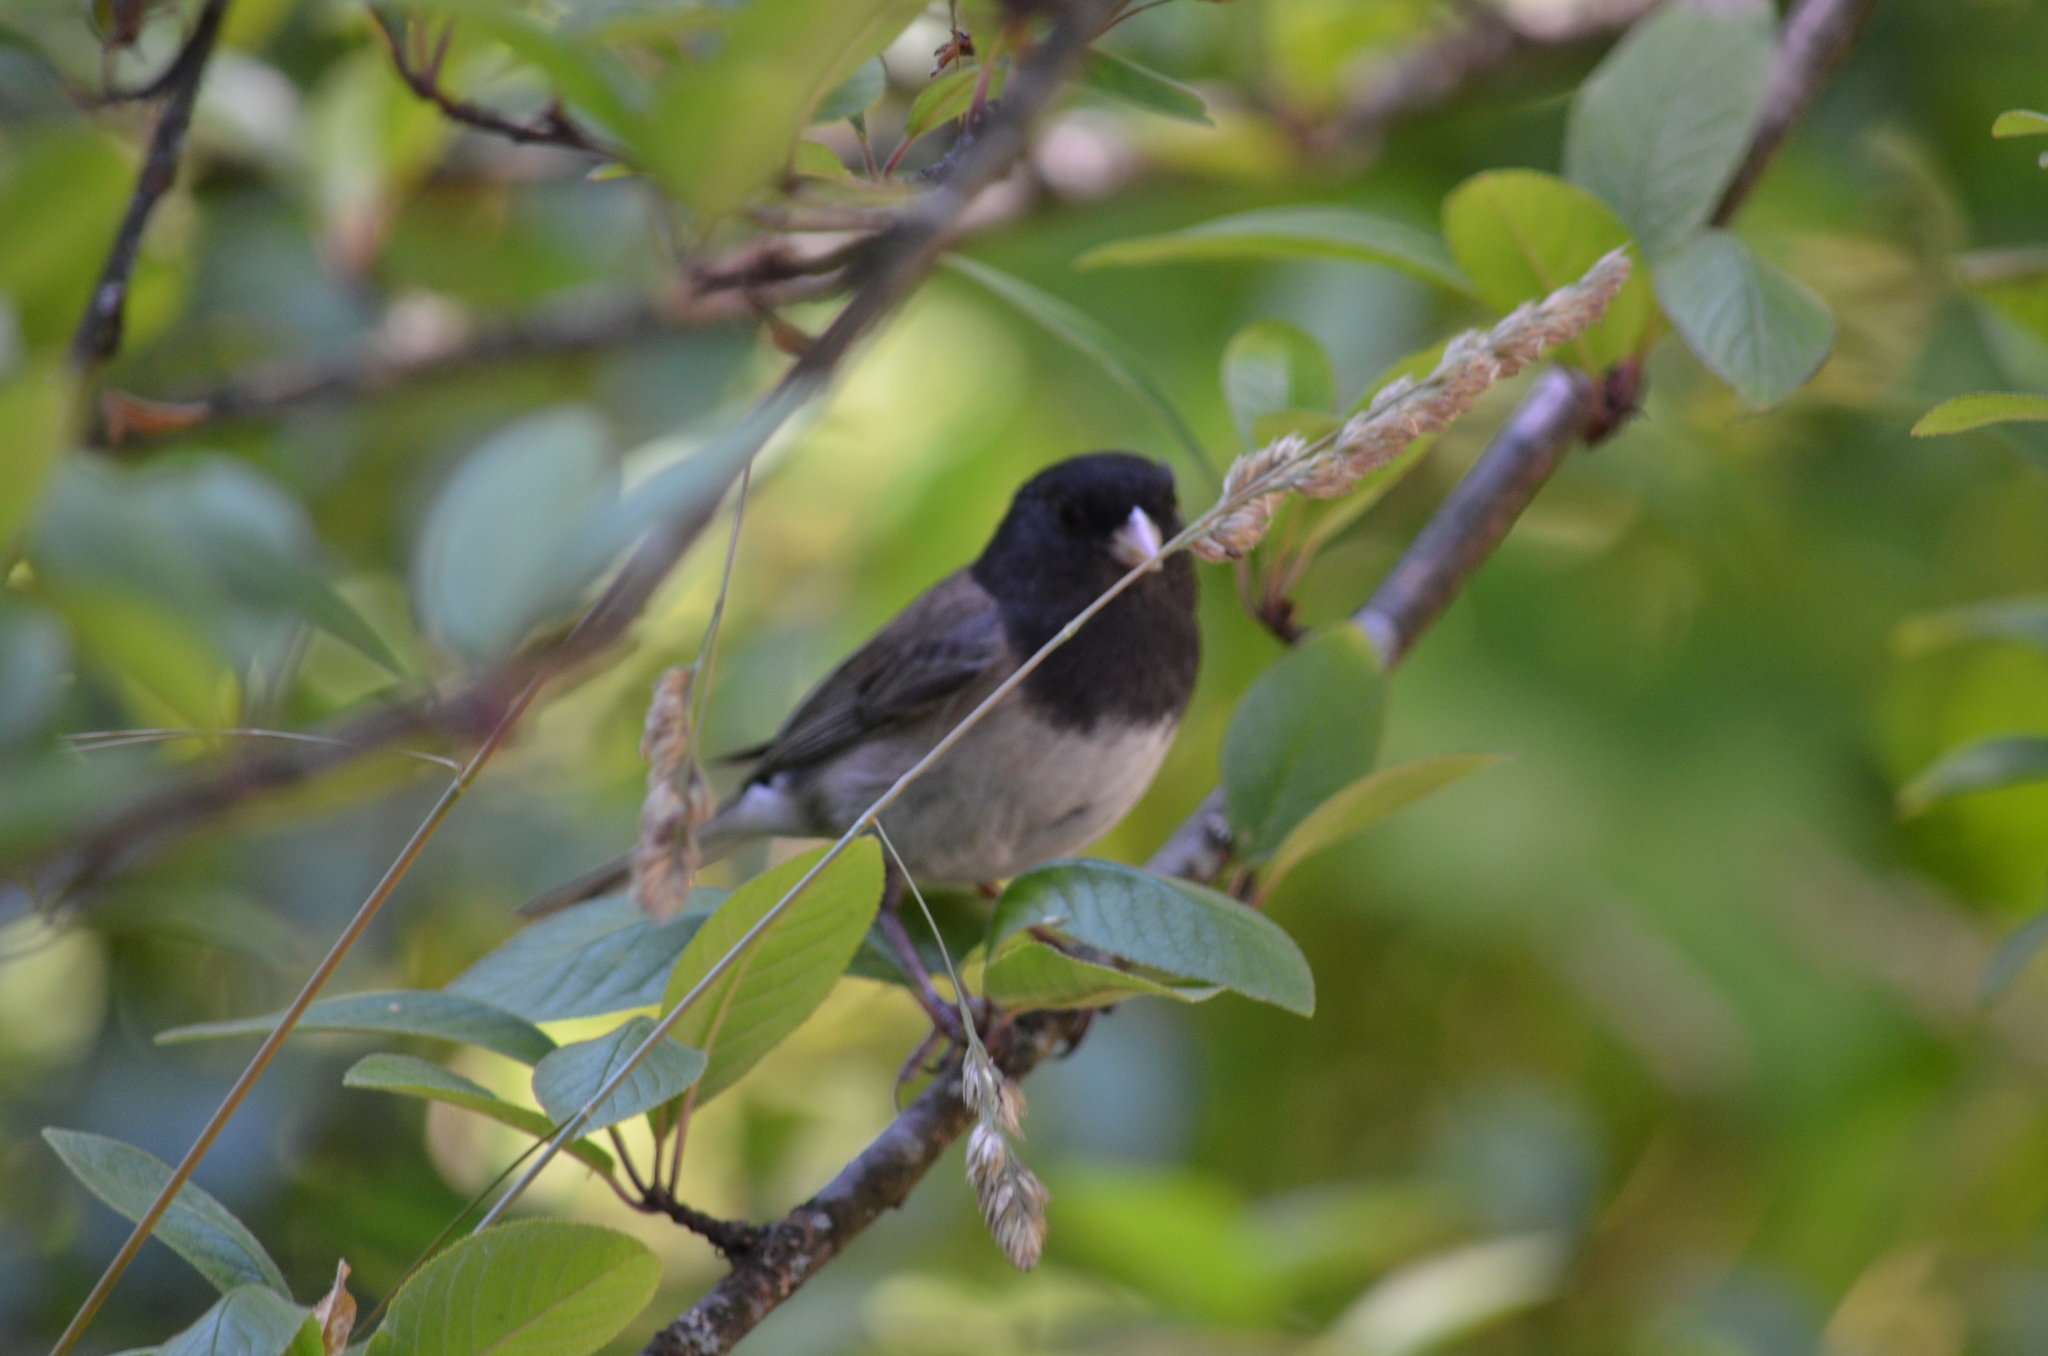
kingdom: Animalia
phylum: Chordata
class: Aves
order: Passeriformes
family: Passerellidae
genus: Junco
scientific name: Junco hyemalis
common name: Dark-eyed junco
